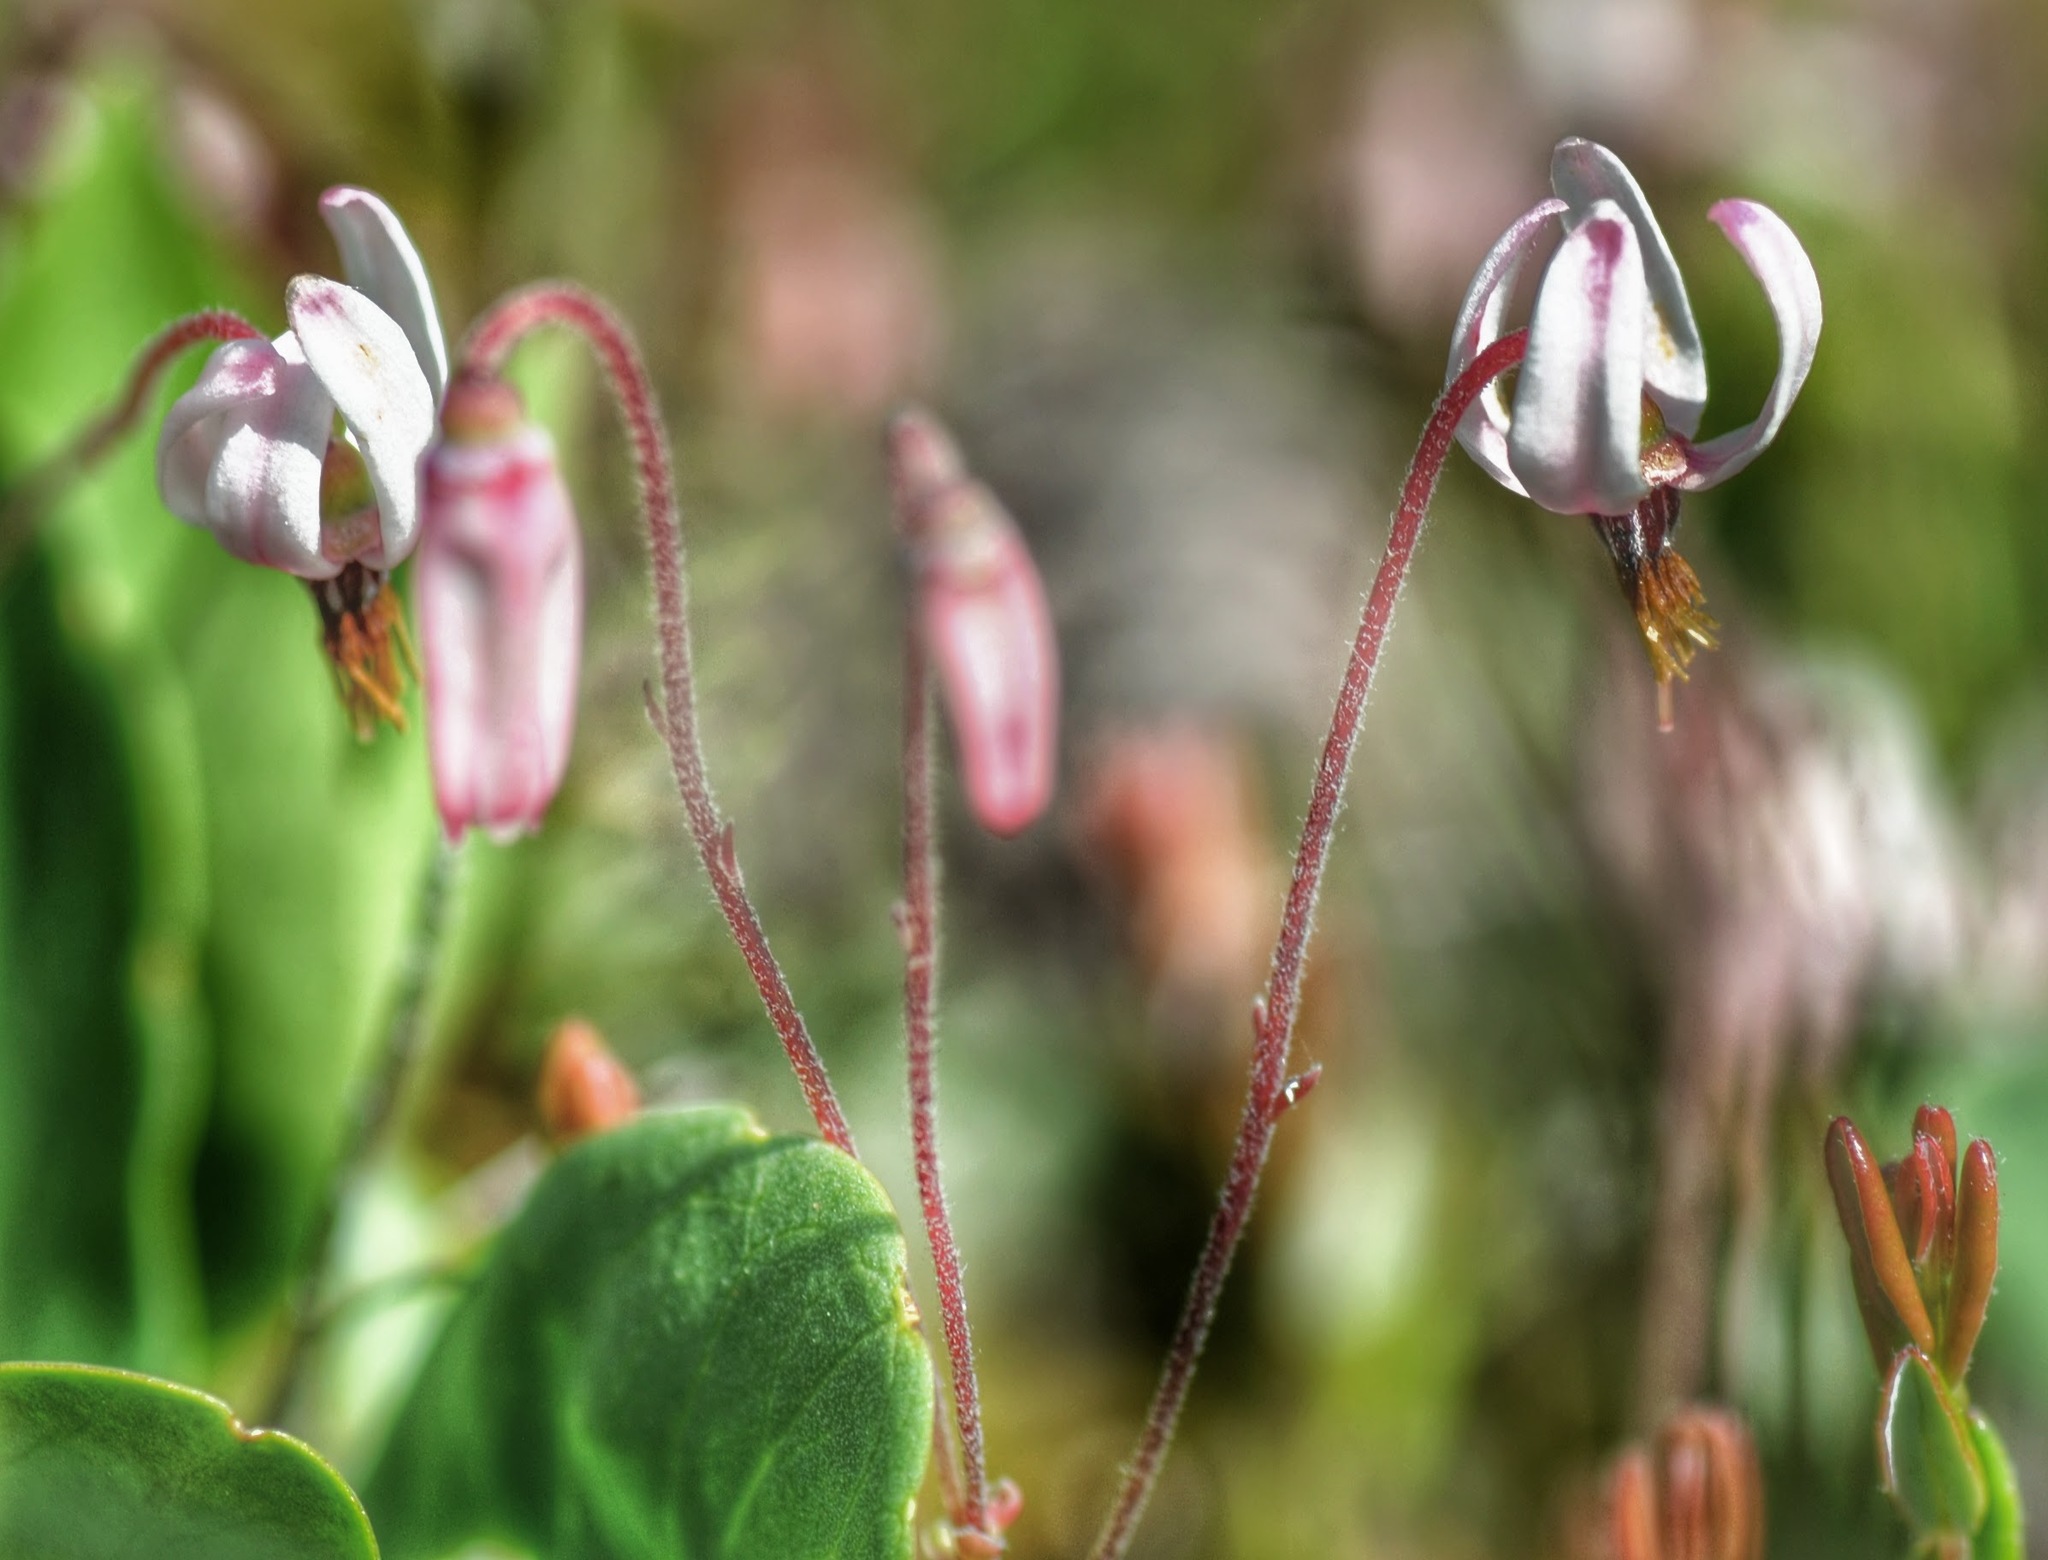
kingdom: Plantae
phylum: Tracheophyta
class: Magnoliopsida
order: Ericales
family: Ericaceae
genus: Vaccinium
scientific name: Vaccinium oxycoccos
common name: Cranberry
